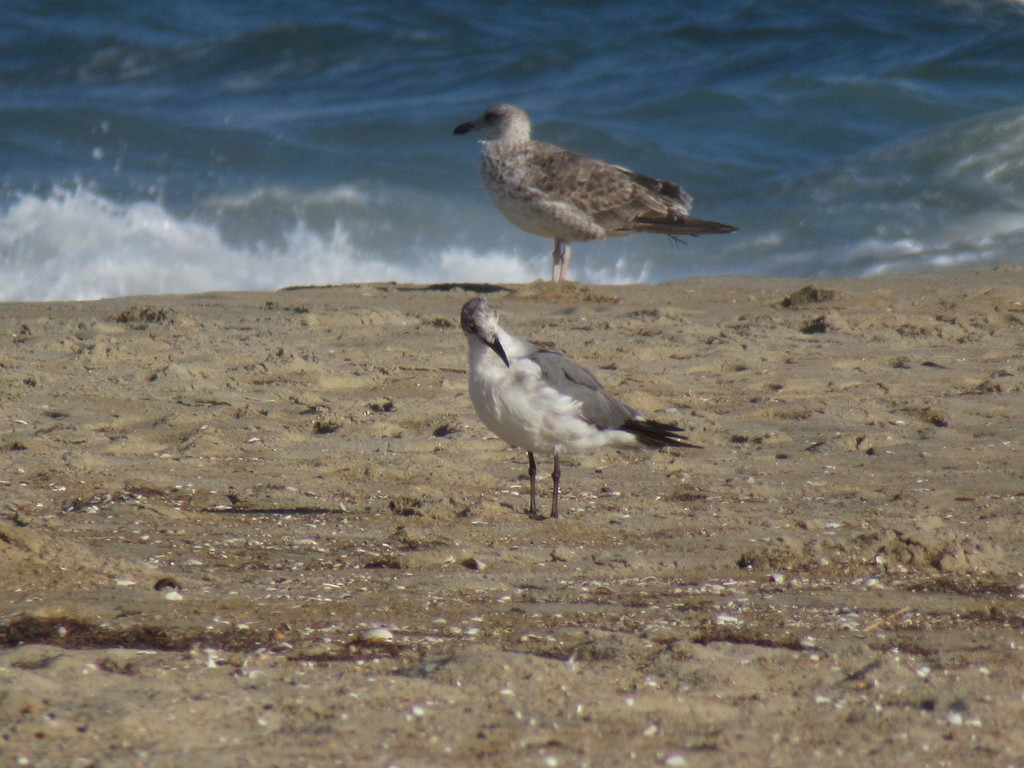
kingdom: Animalia
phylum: Chordata
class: Aves
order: Charadriiformes
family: Laridae
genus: Leucophaeus
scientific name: Leucophaeus atricilla
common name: Laughing gull
